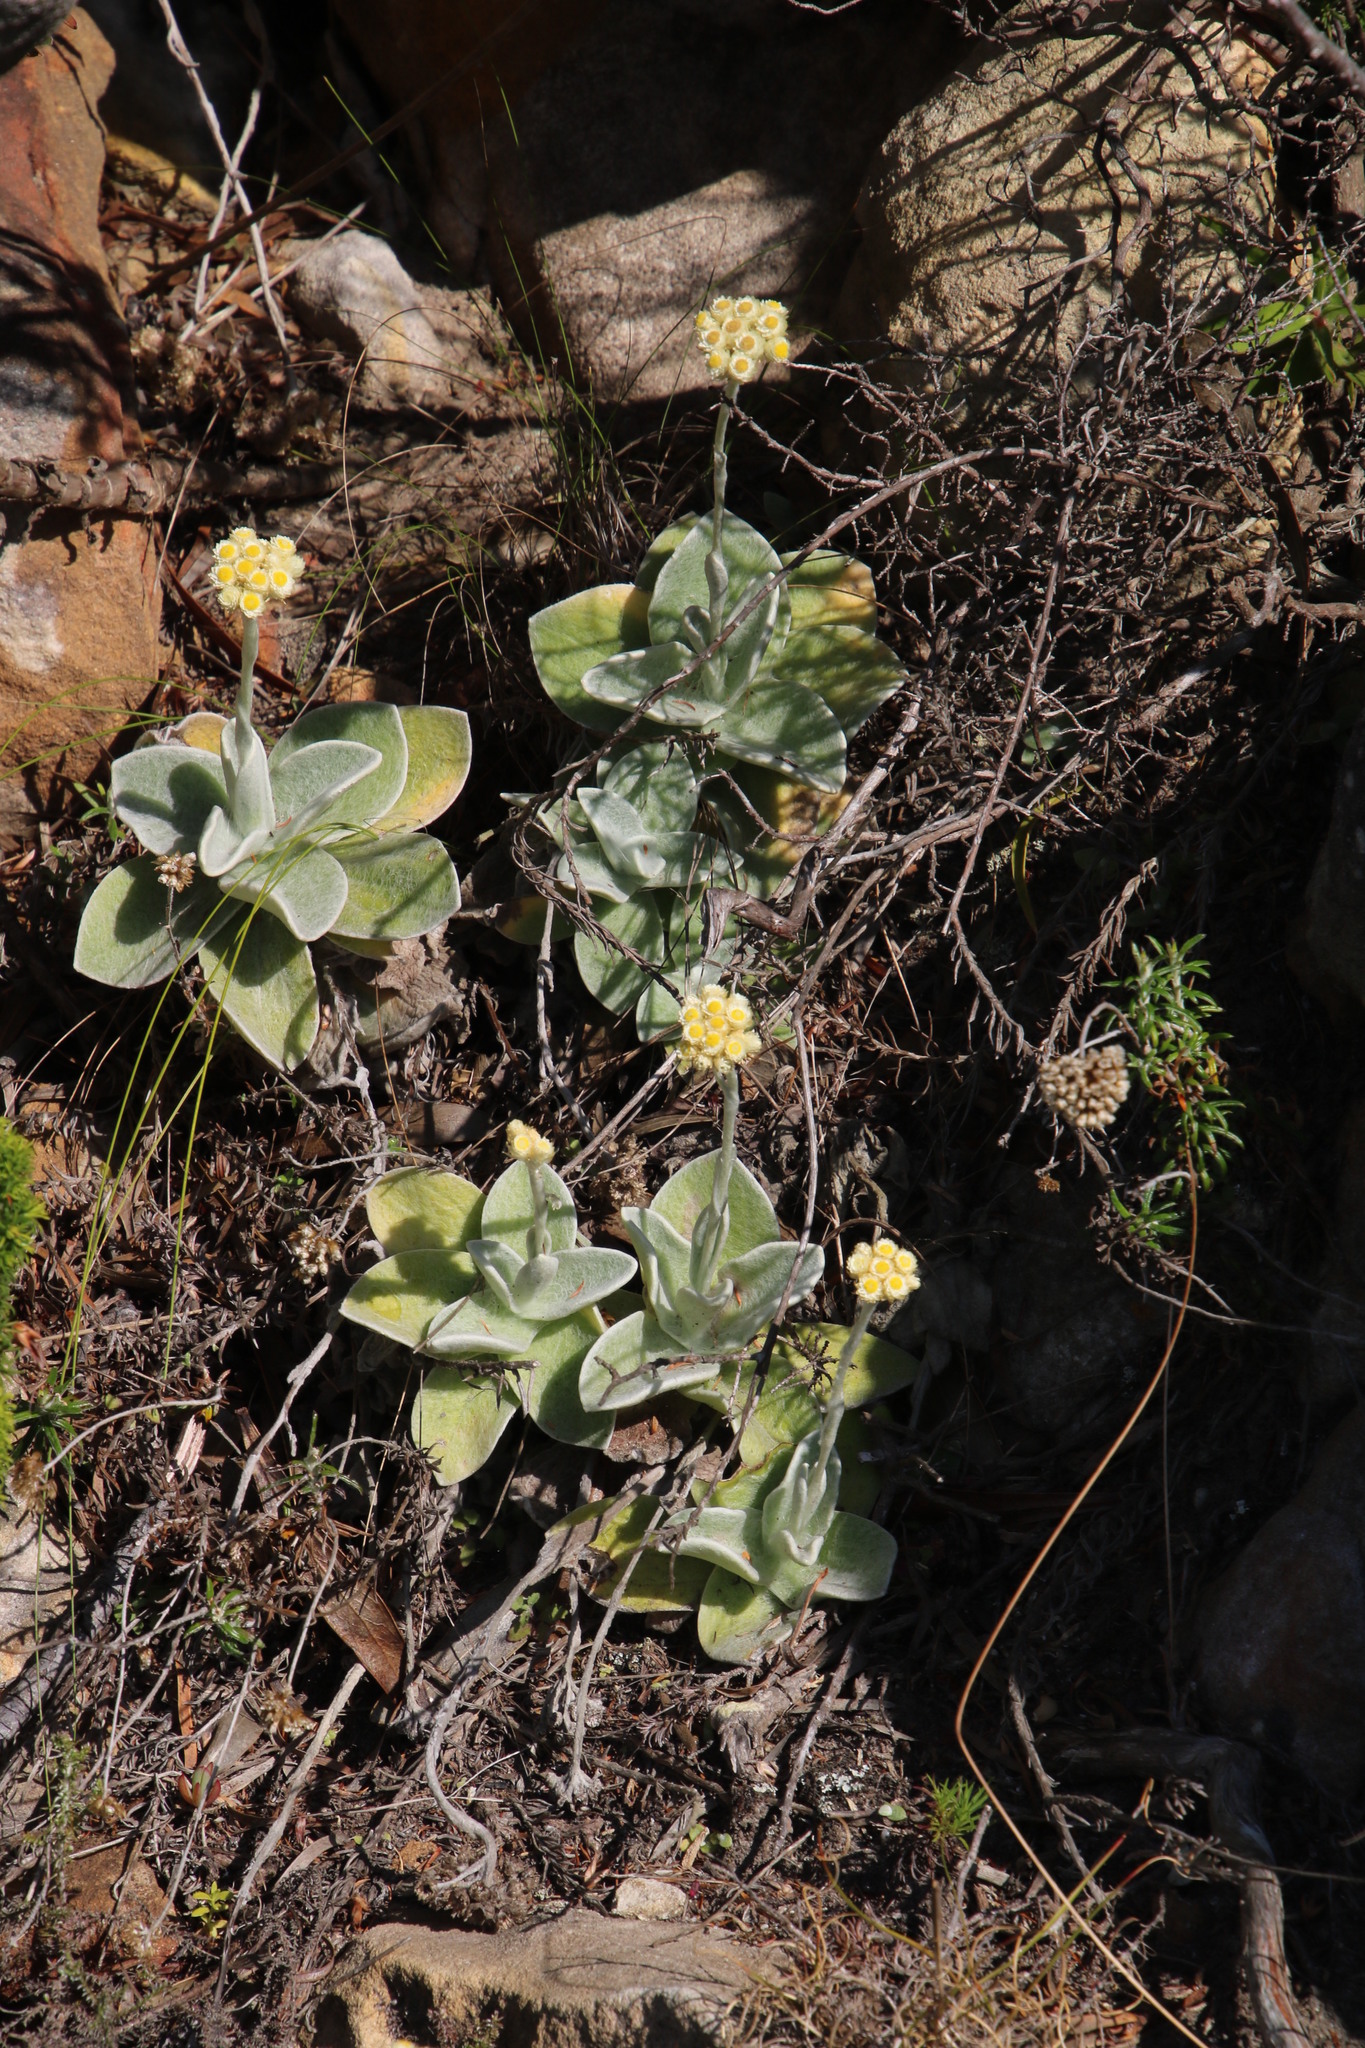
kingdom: Plantae
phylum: Tracheophyta
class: Magnoliopsida
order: Asterales
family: Asteraceae
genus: Helichrysum
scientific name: Helichrysum grandiflorum
